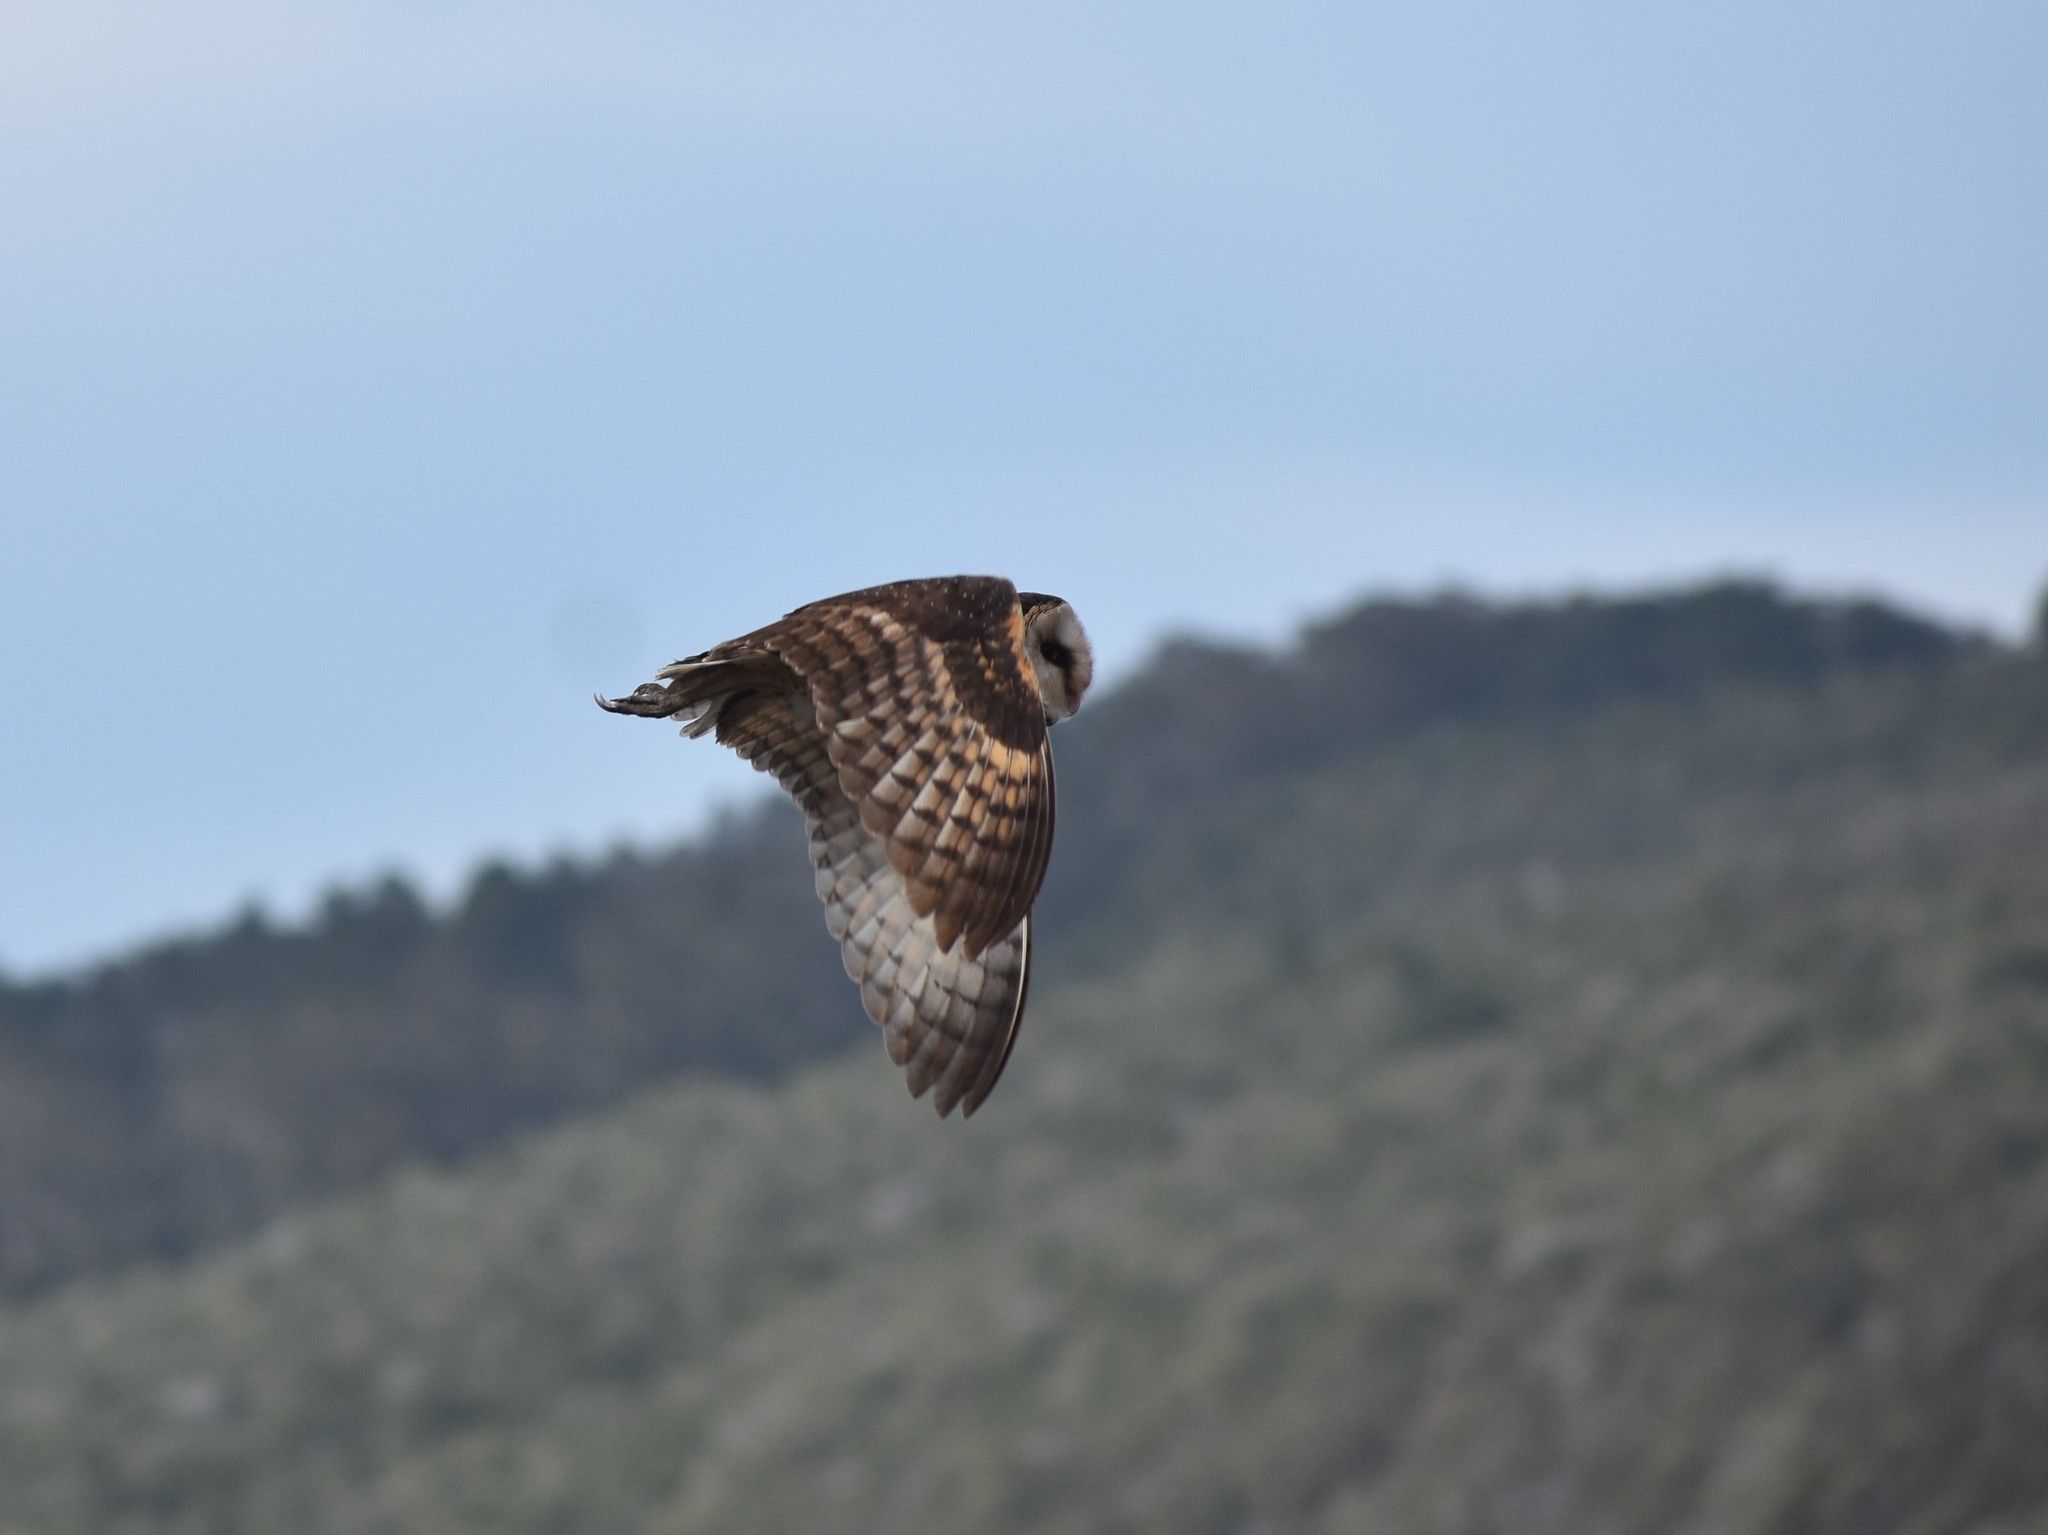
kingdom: Animalia
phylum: Chordata
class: Aves
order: Strigiformes
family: Tytonidae
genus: Tyto
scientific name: Tyto capensis
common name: African grass-owl
